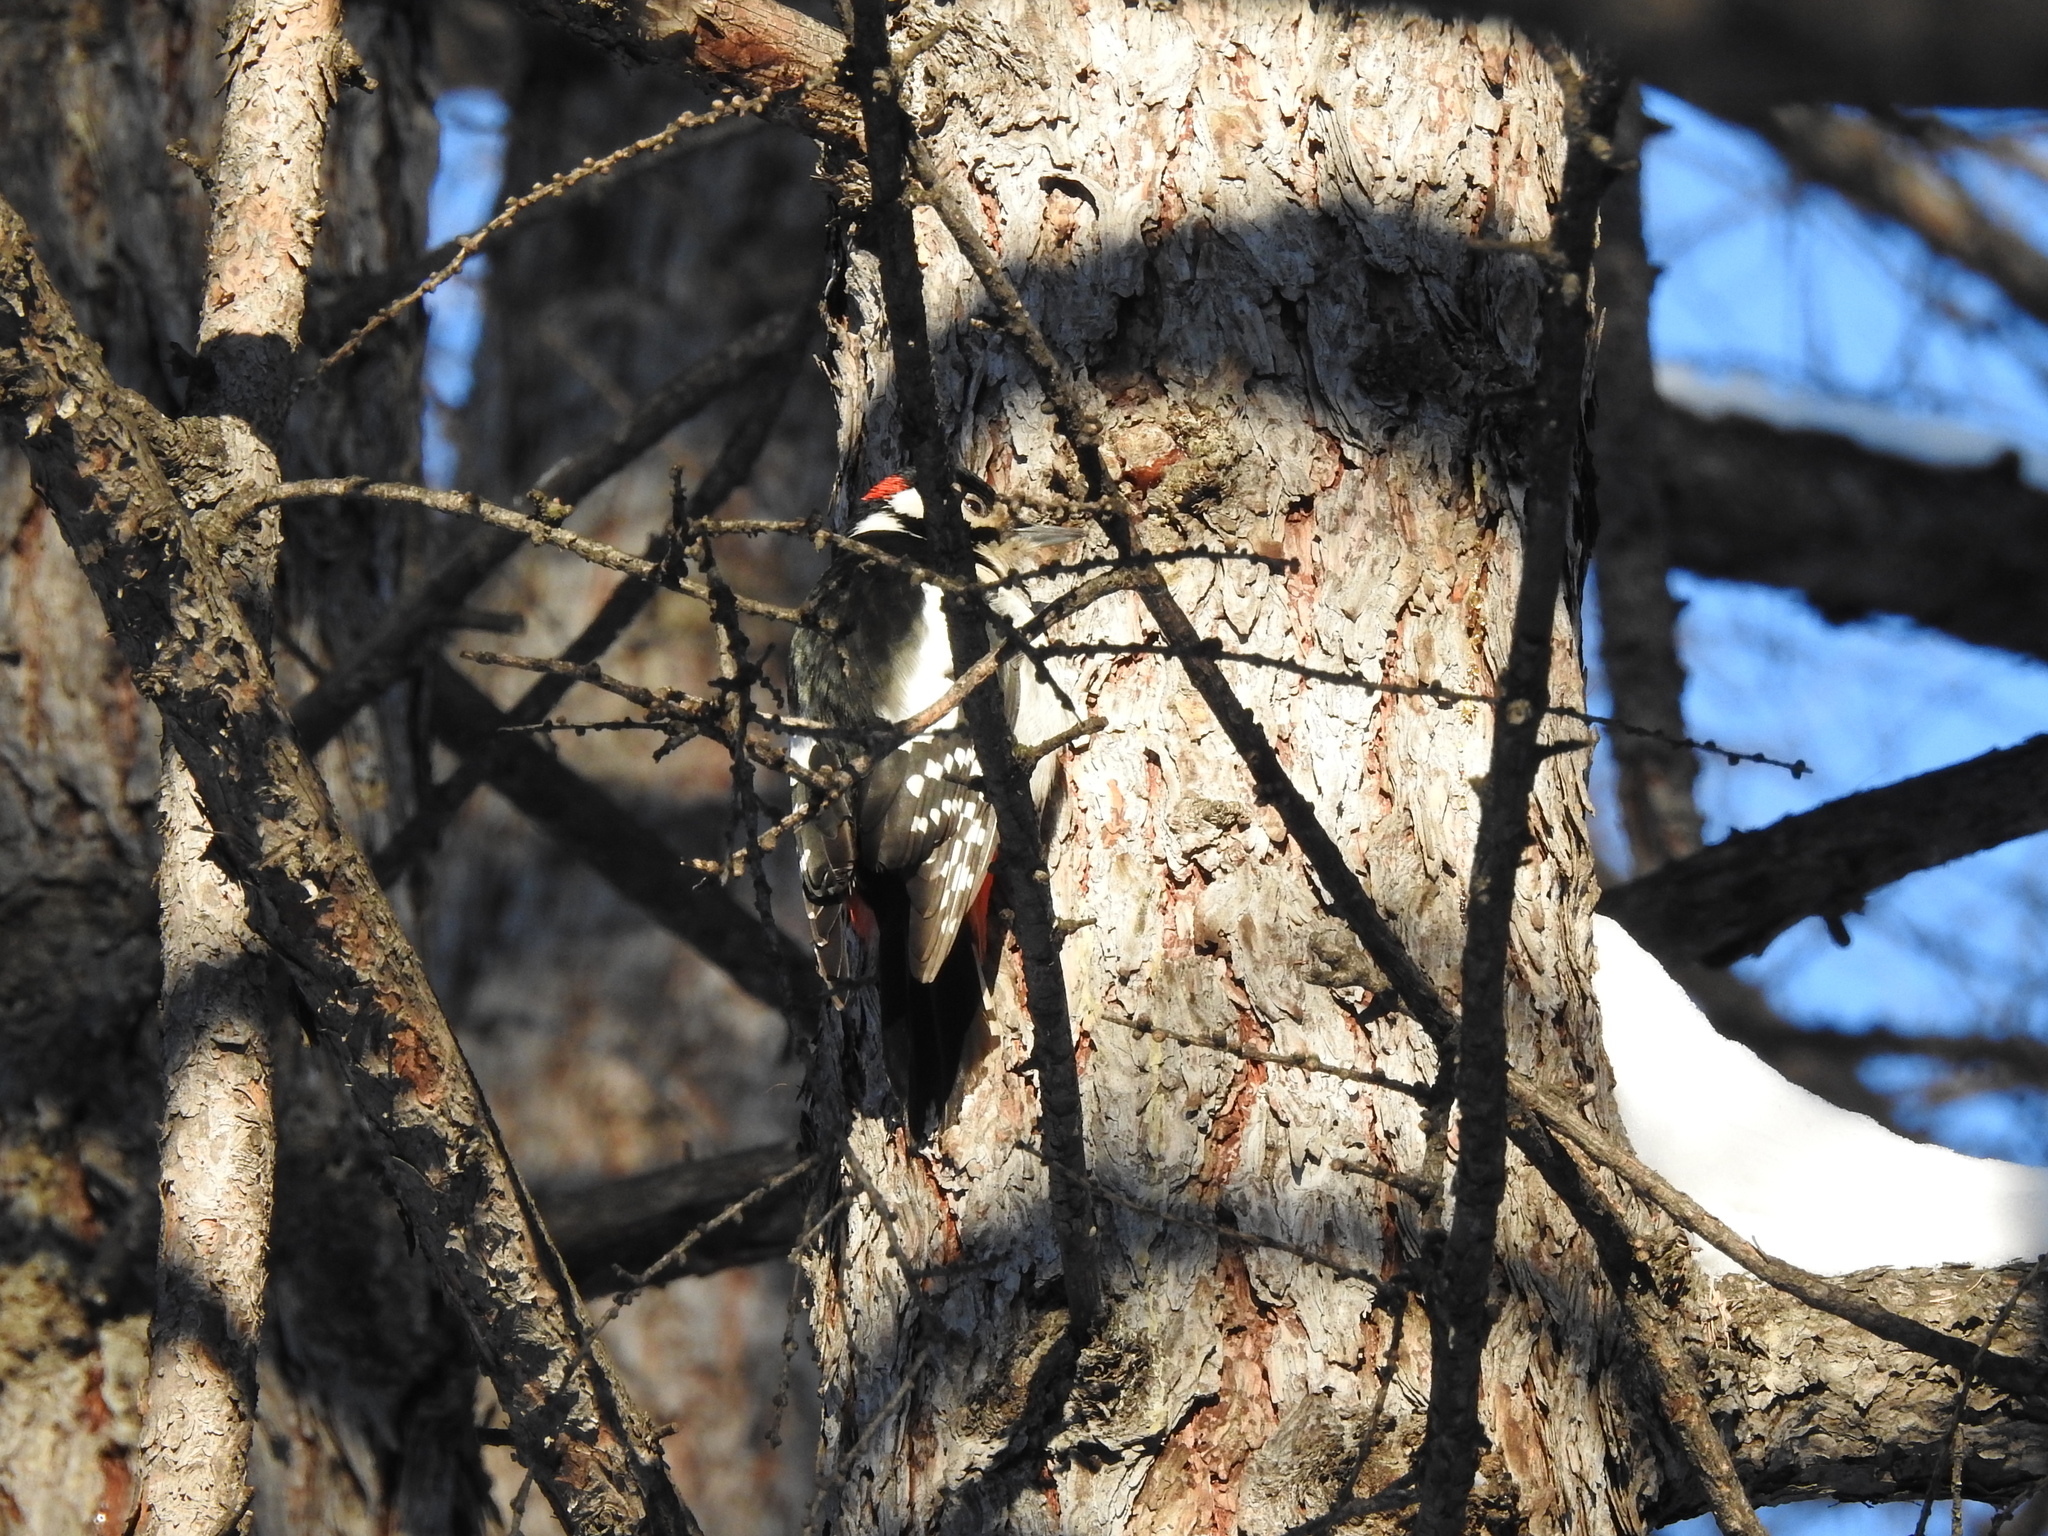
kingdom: Animalia
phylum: Chordata
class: Aves
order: Piciformes
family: Picidae
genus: Dendrocopos
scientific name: Dendrocopos major
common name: Great spotted woodpecker
